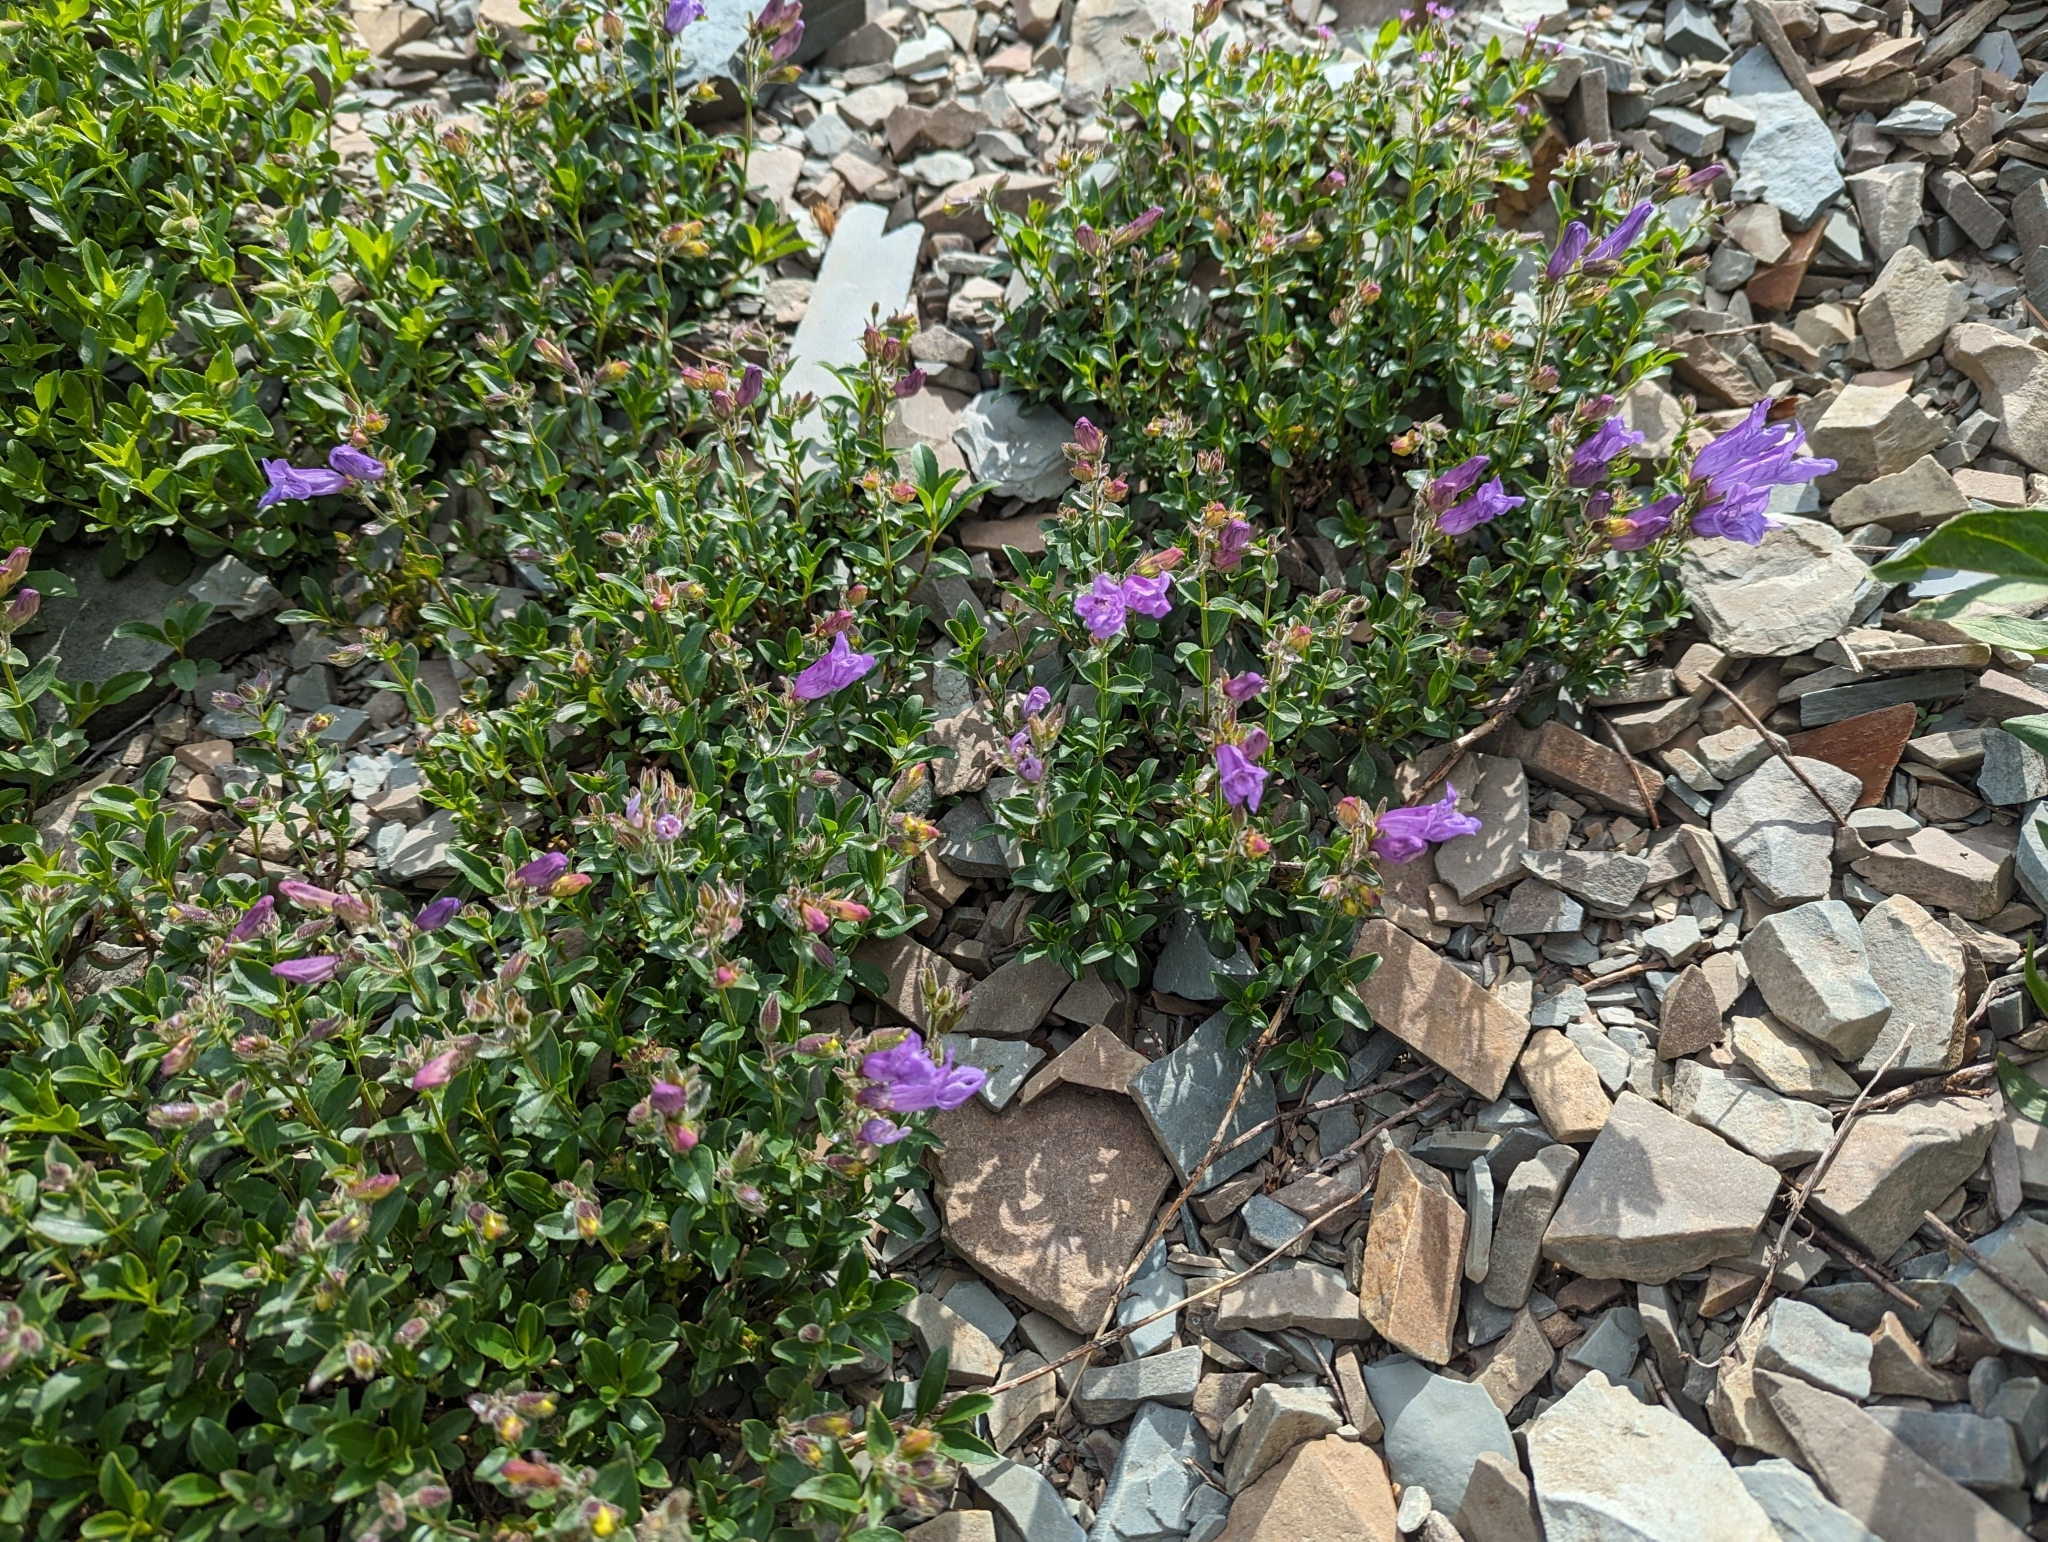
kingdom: Plantae
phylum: Tracheophyta
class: Magnoliopsida
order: Lamiales
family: Plantaginaceae
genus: Penstemon
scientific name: Penstemon ellipticus
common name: Alpine beardtongue
